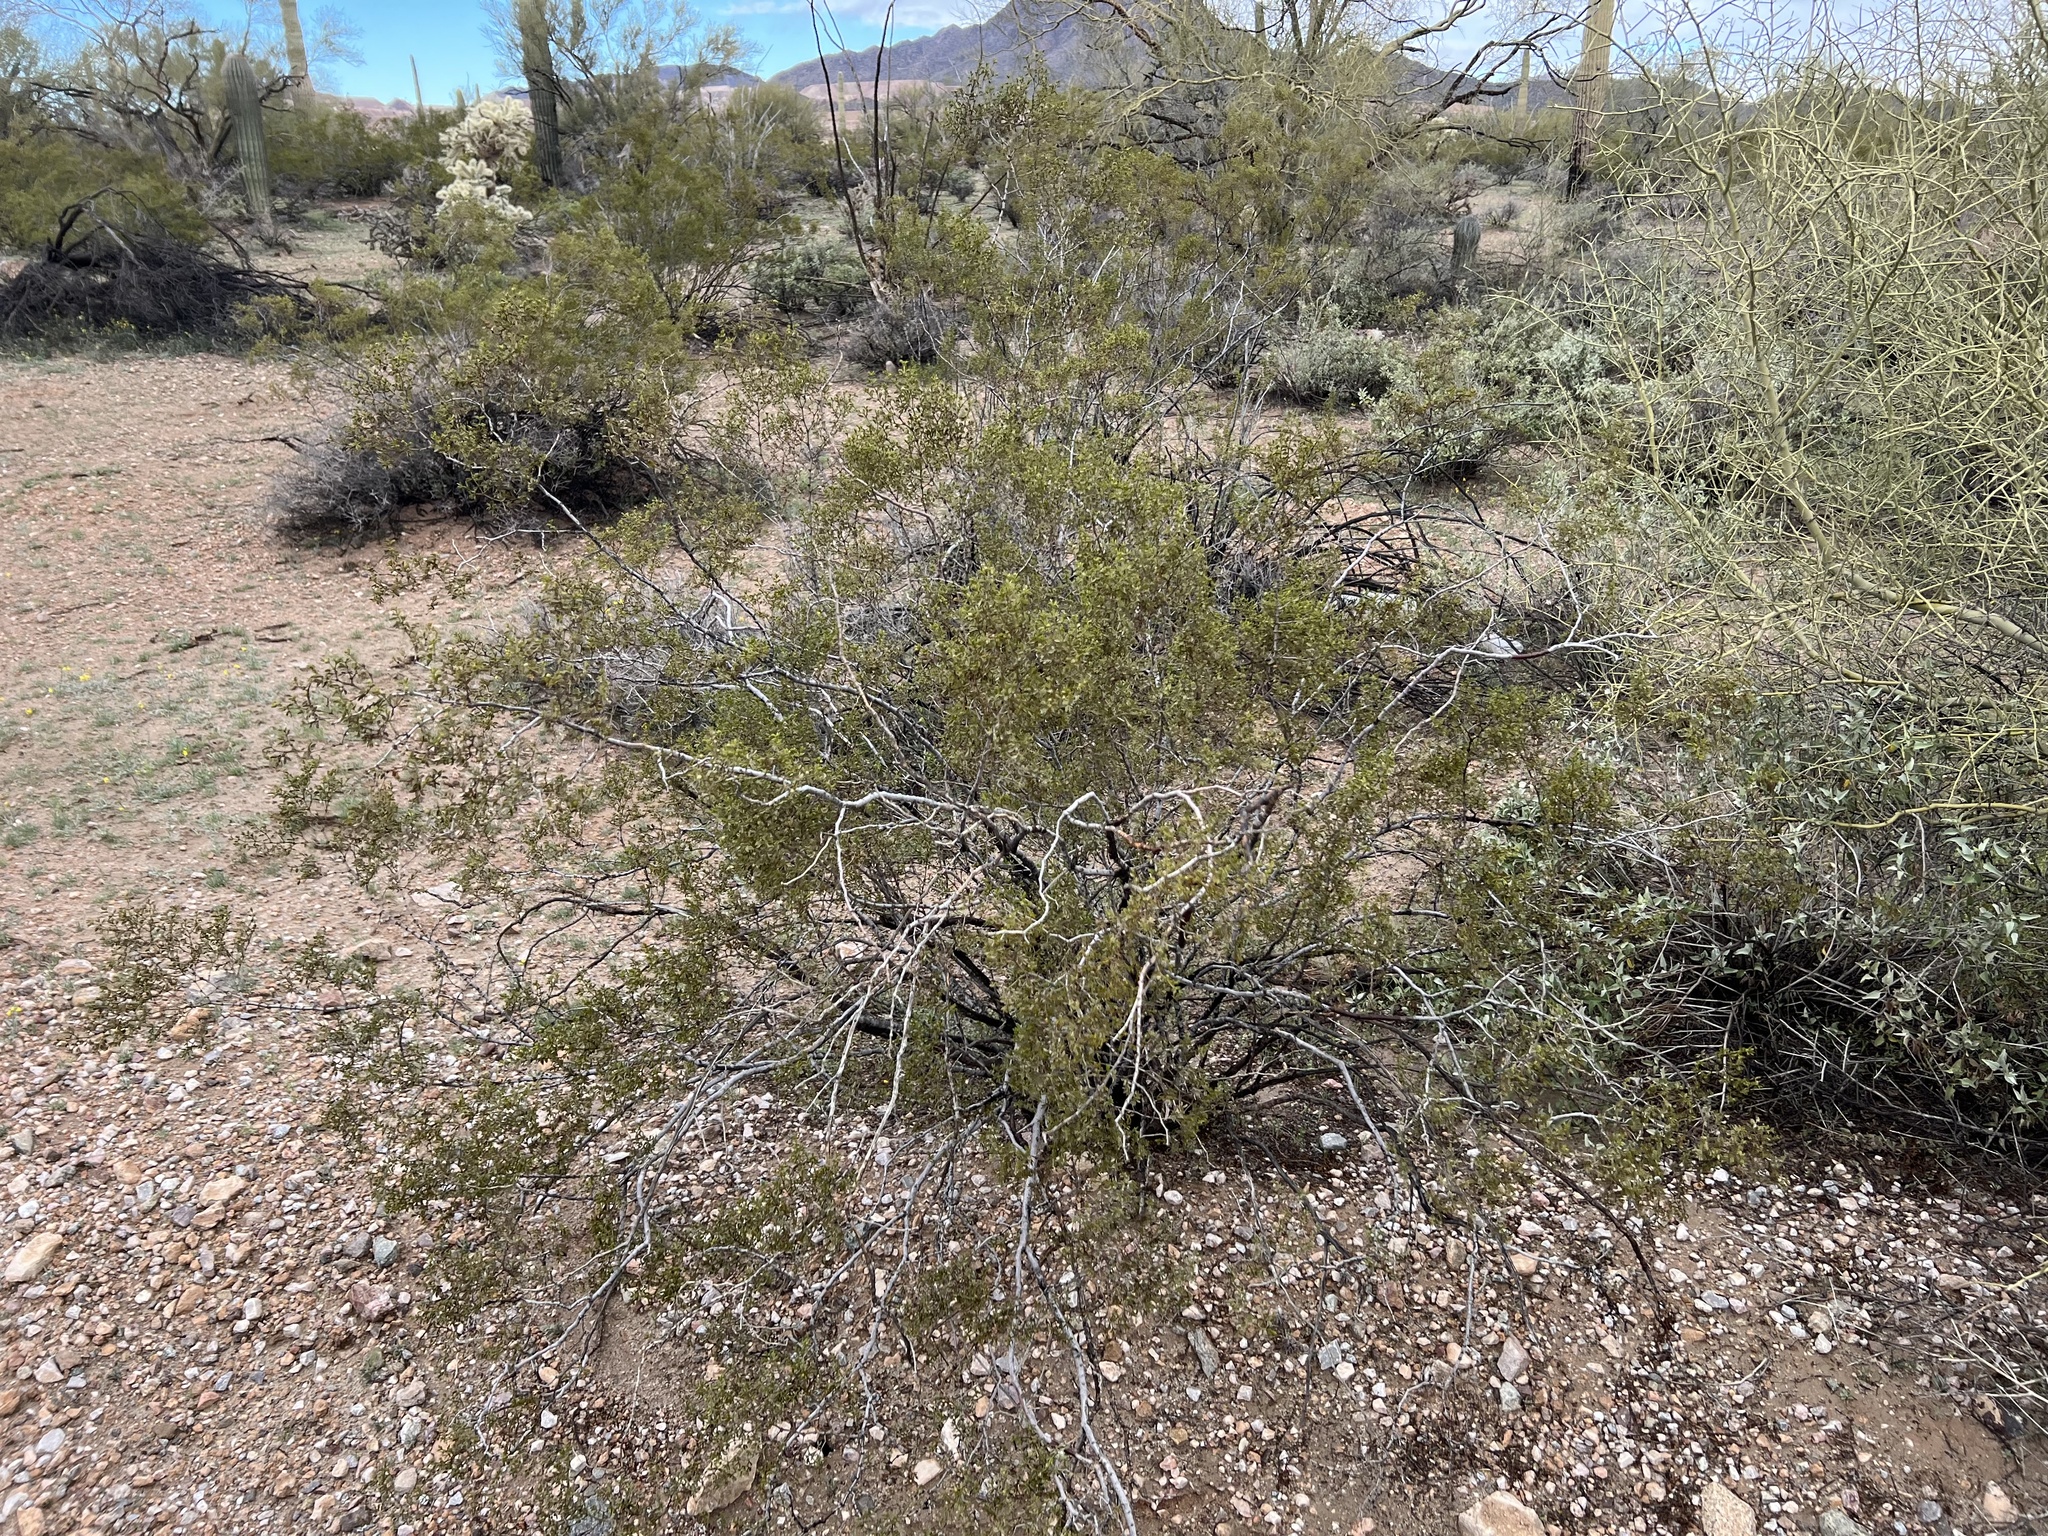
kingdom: Plantae
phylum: Tracheophyta
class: Magnoliopsida
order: Zygophyllales
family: Zygophyllaceae
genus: Larrea
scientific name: Larrea tridentata
